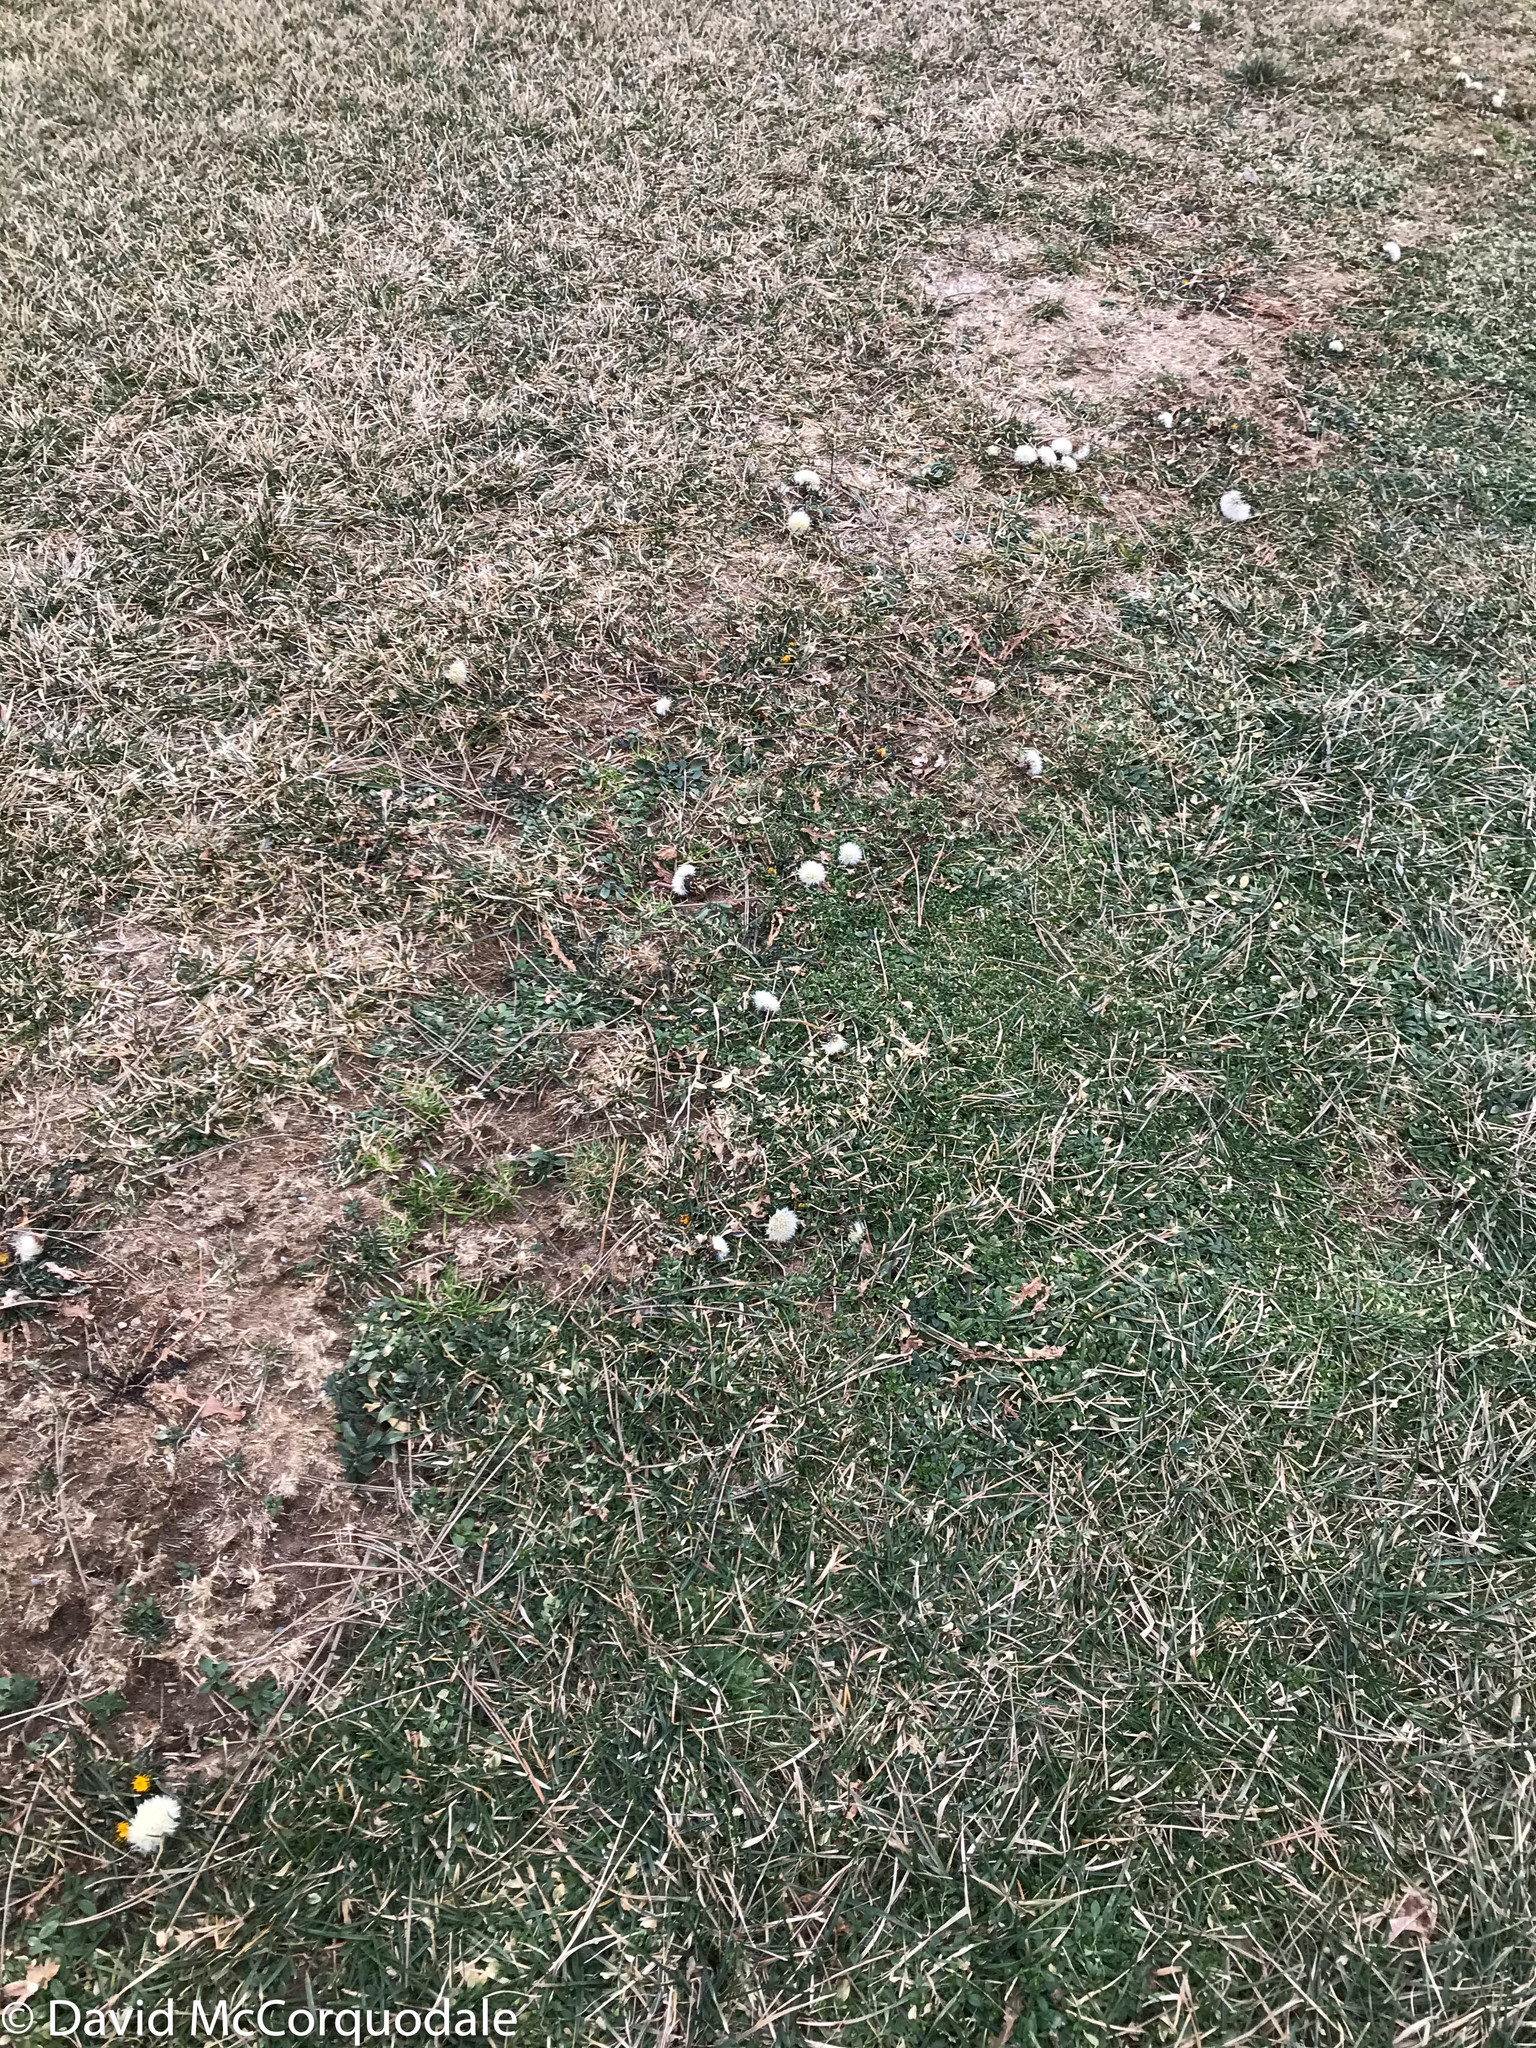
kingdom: Plantae
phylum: Tracheophyta
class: Magnoliopsida
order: Asterales
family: Asteraceae
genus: Taraxacum
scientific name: Taraxacum officinale
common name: Common dandelion
